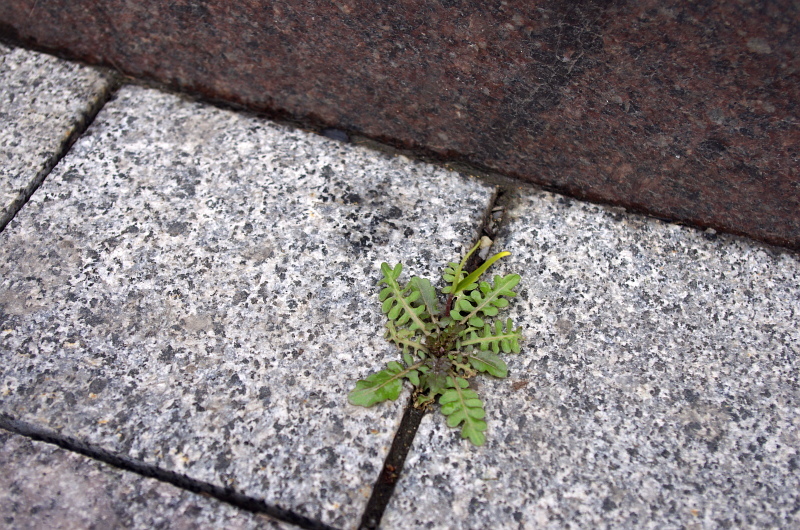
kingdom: Plantae
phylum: Tracheophyta
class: Magnoliopsida
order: Brassicales
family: Brassicaceae
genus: Rorippa
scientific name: Rorippa palustris
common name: Marsh yellow-cress
